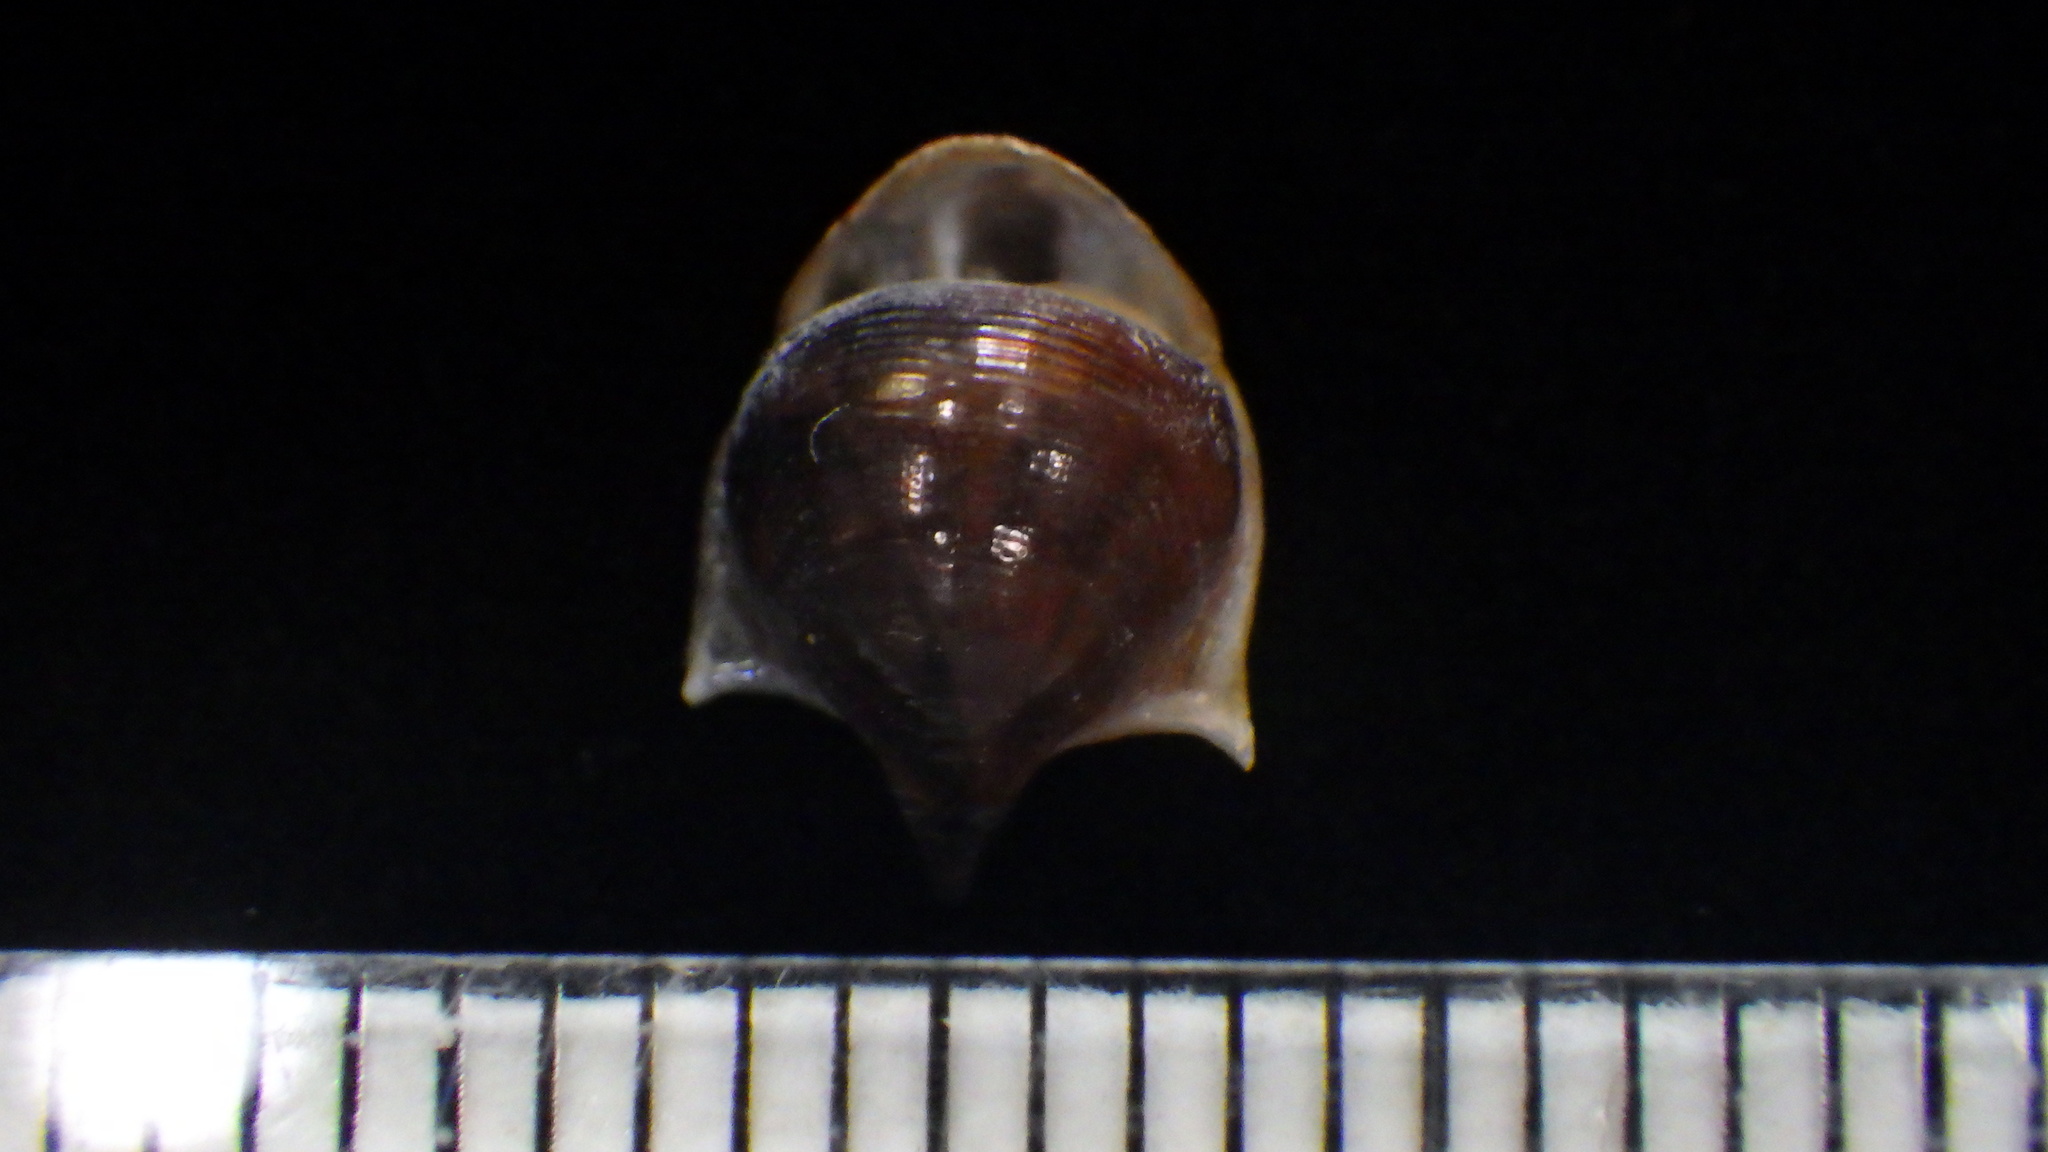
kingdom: Animalia
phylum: Mollusca
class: Gastropoda
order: Pteropoda
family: Cavoliniidae
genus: Cavolinia
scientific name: Cavolinia uncinata
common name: Uncinate cavoline
